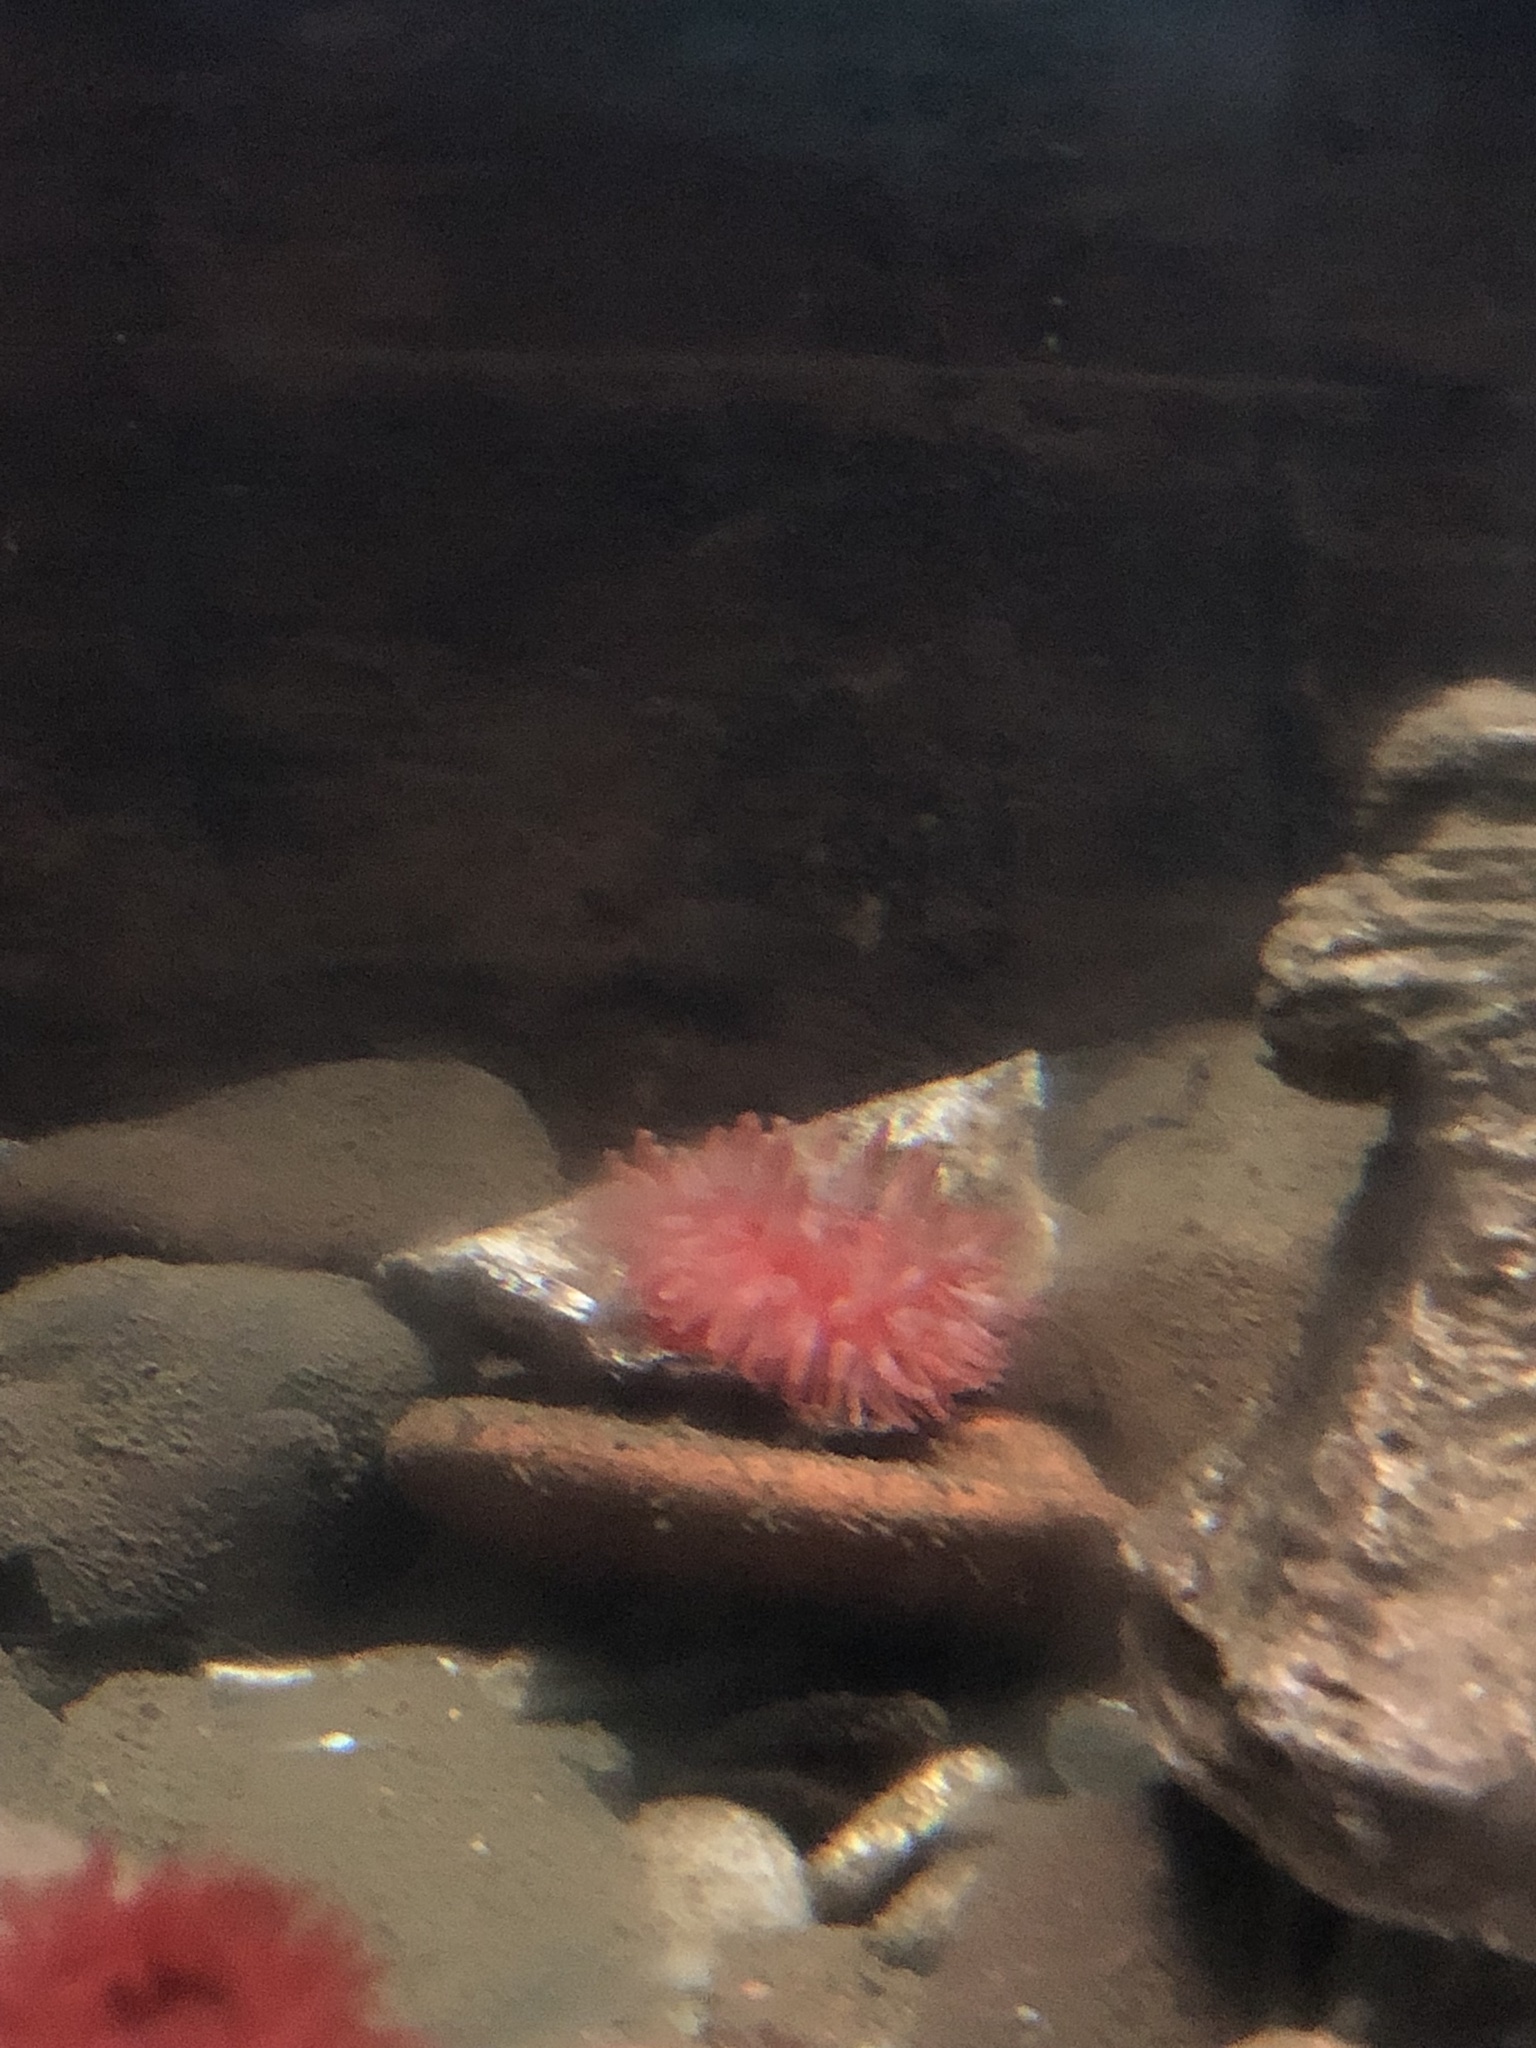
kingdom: Animalia
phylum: Cnidaria
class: Anthozoa
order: Actiniaria
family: Actiniidae
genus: Urticina
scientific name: Urticina felina
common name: Dahlia anemone
